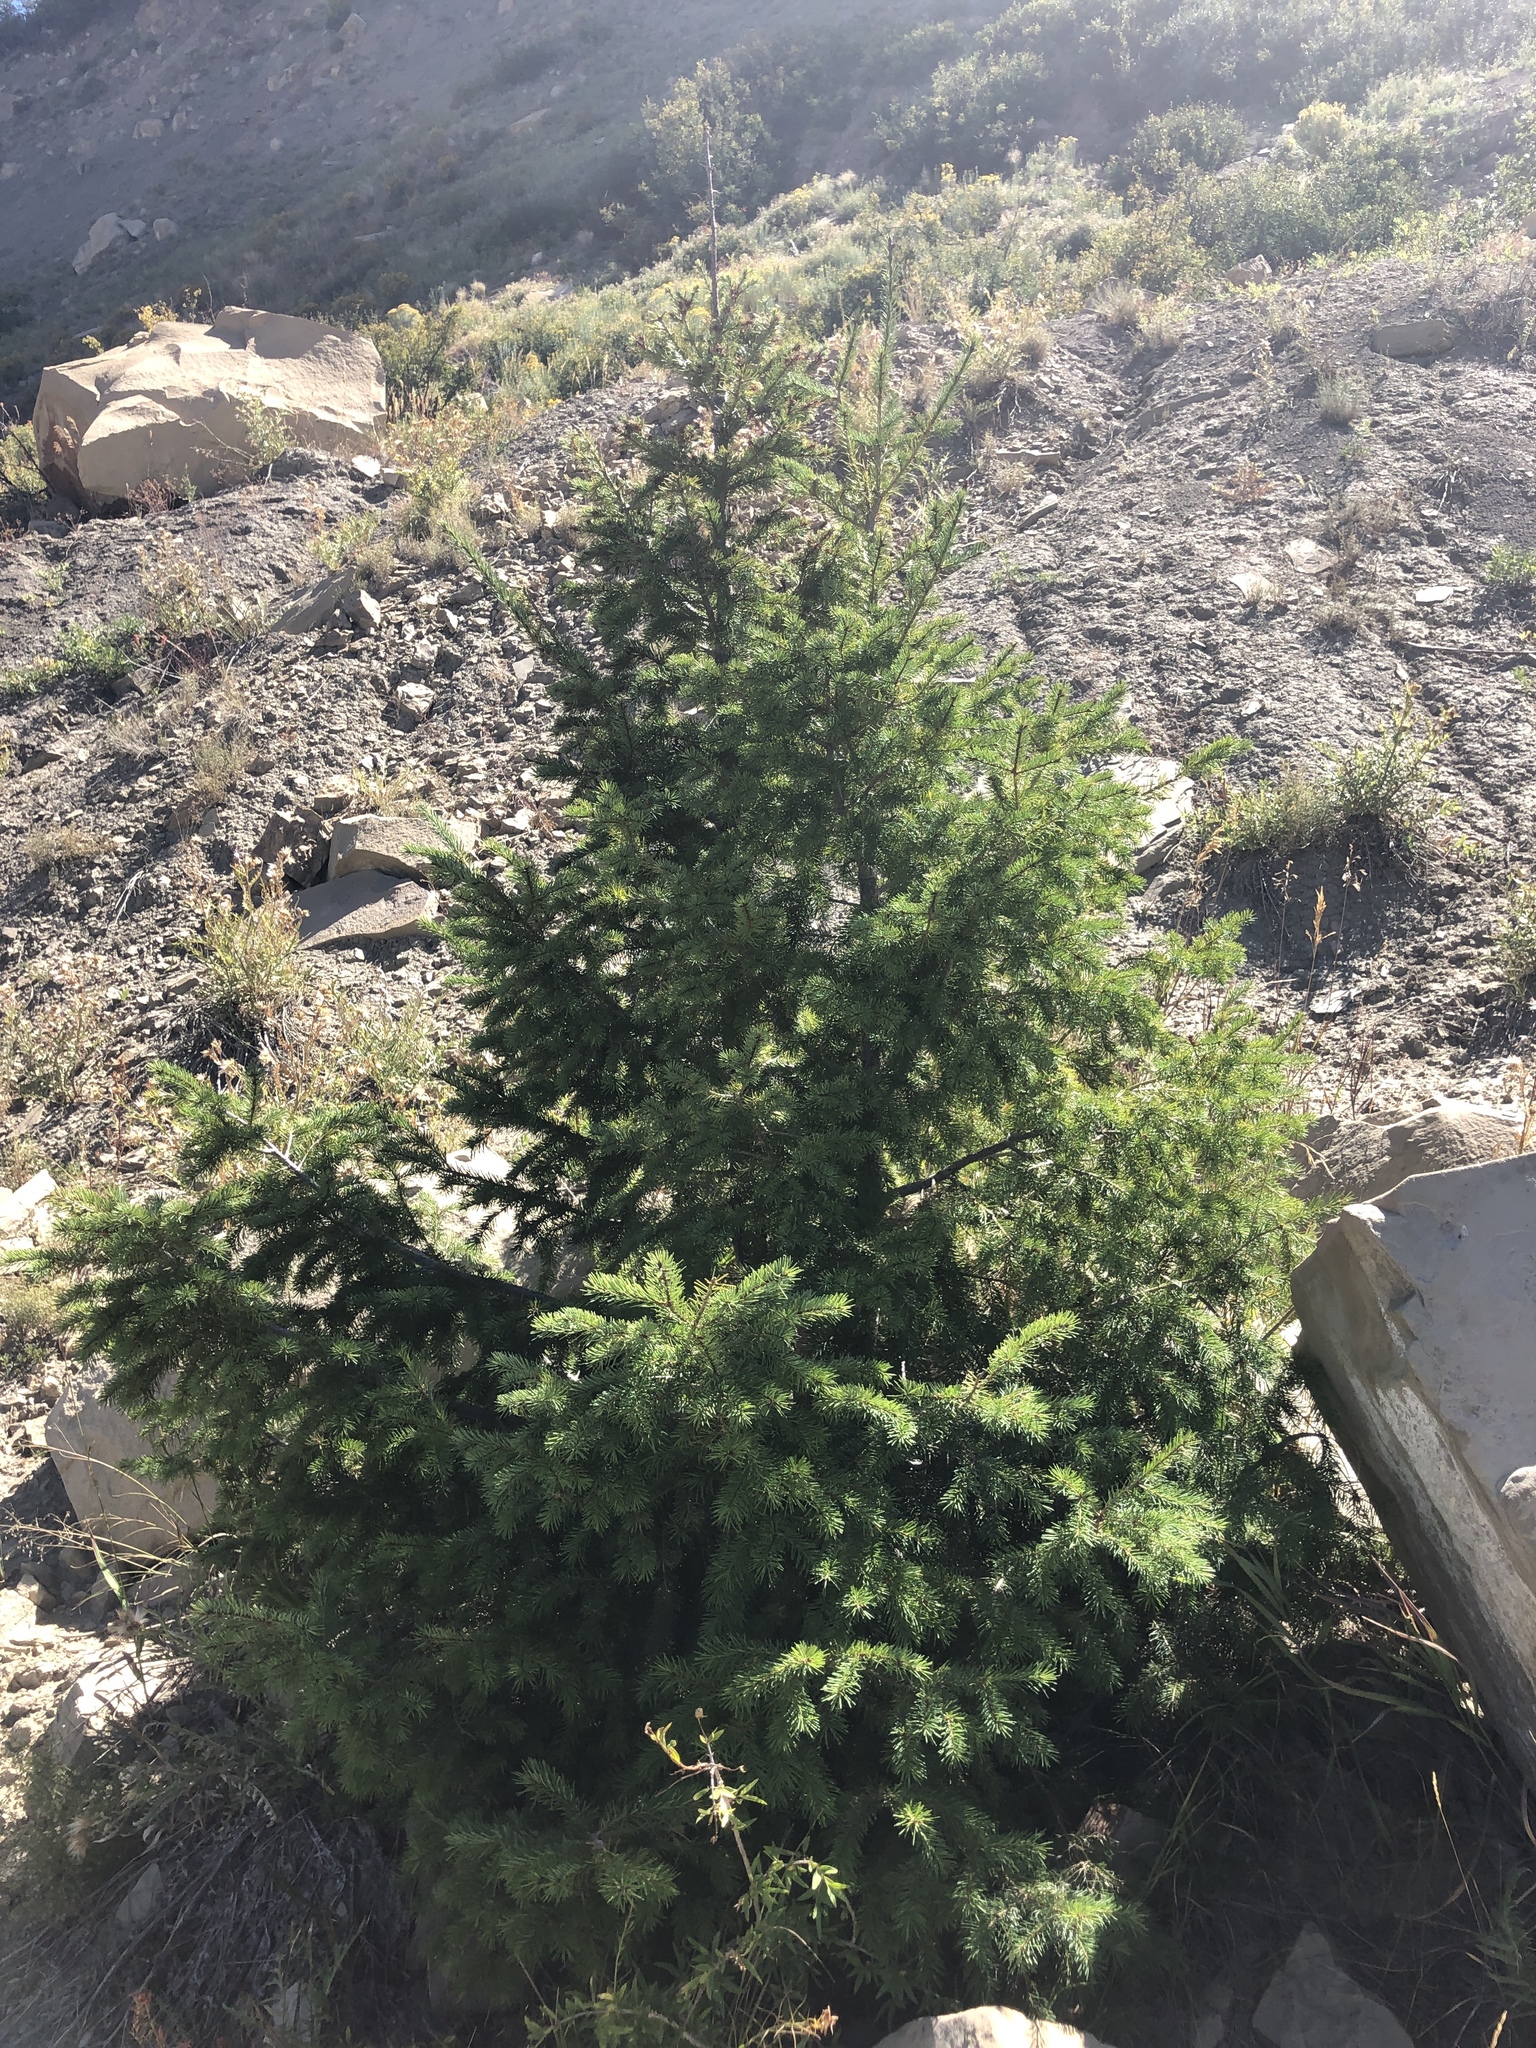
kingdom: Plantae
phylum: Tracheophyta
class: Pinopsida
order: Pinales
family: Pinaceae
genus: Pseudotsuga
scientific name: Pseudotsuga menziesii
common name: Douglas fir
